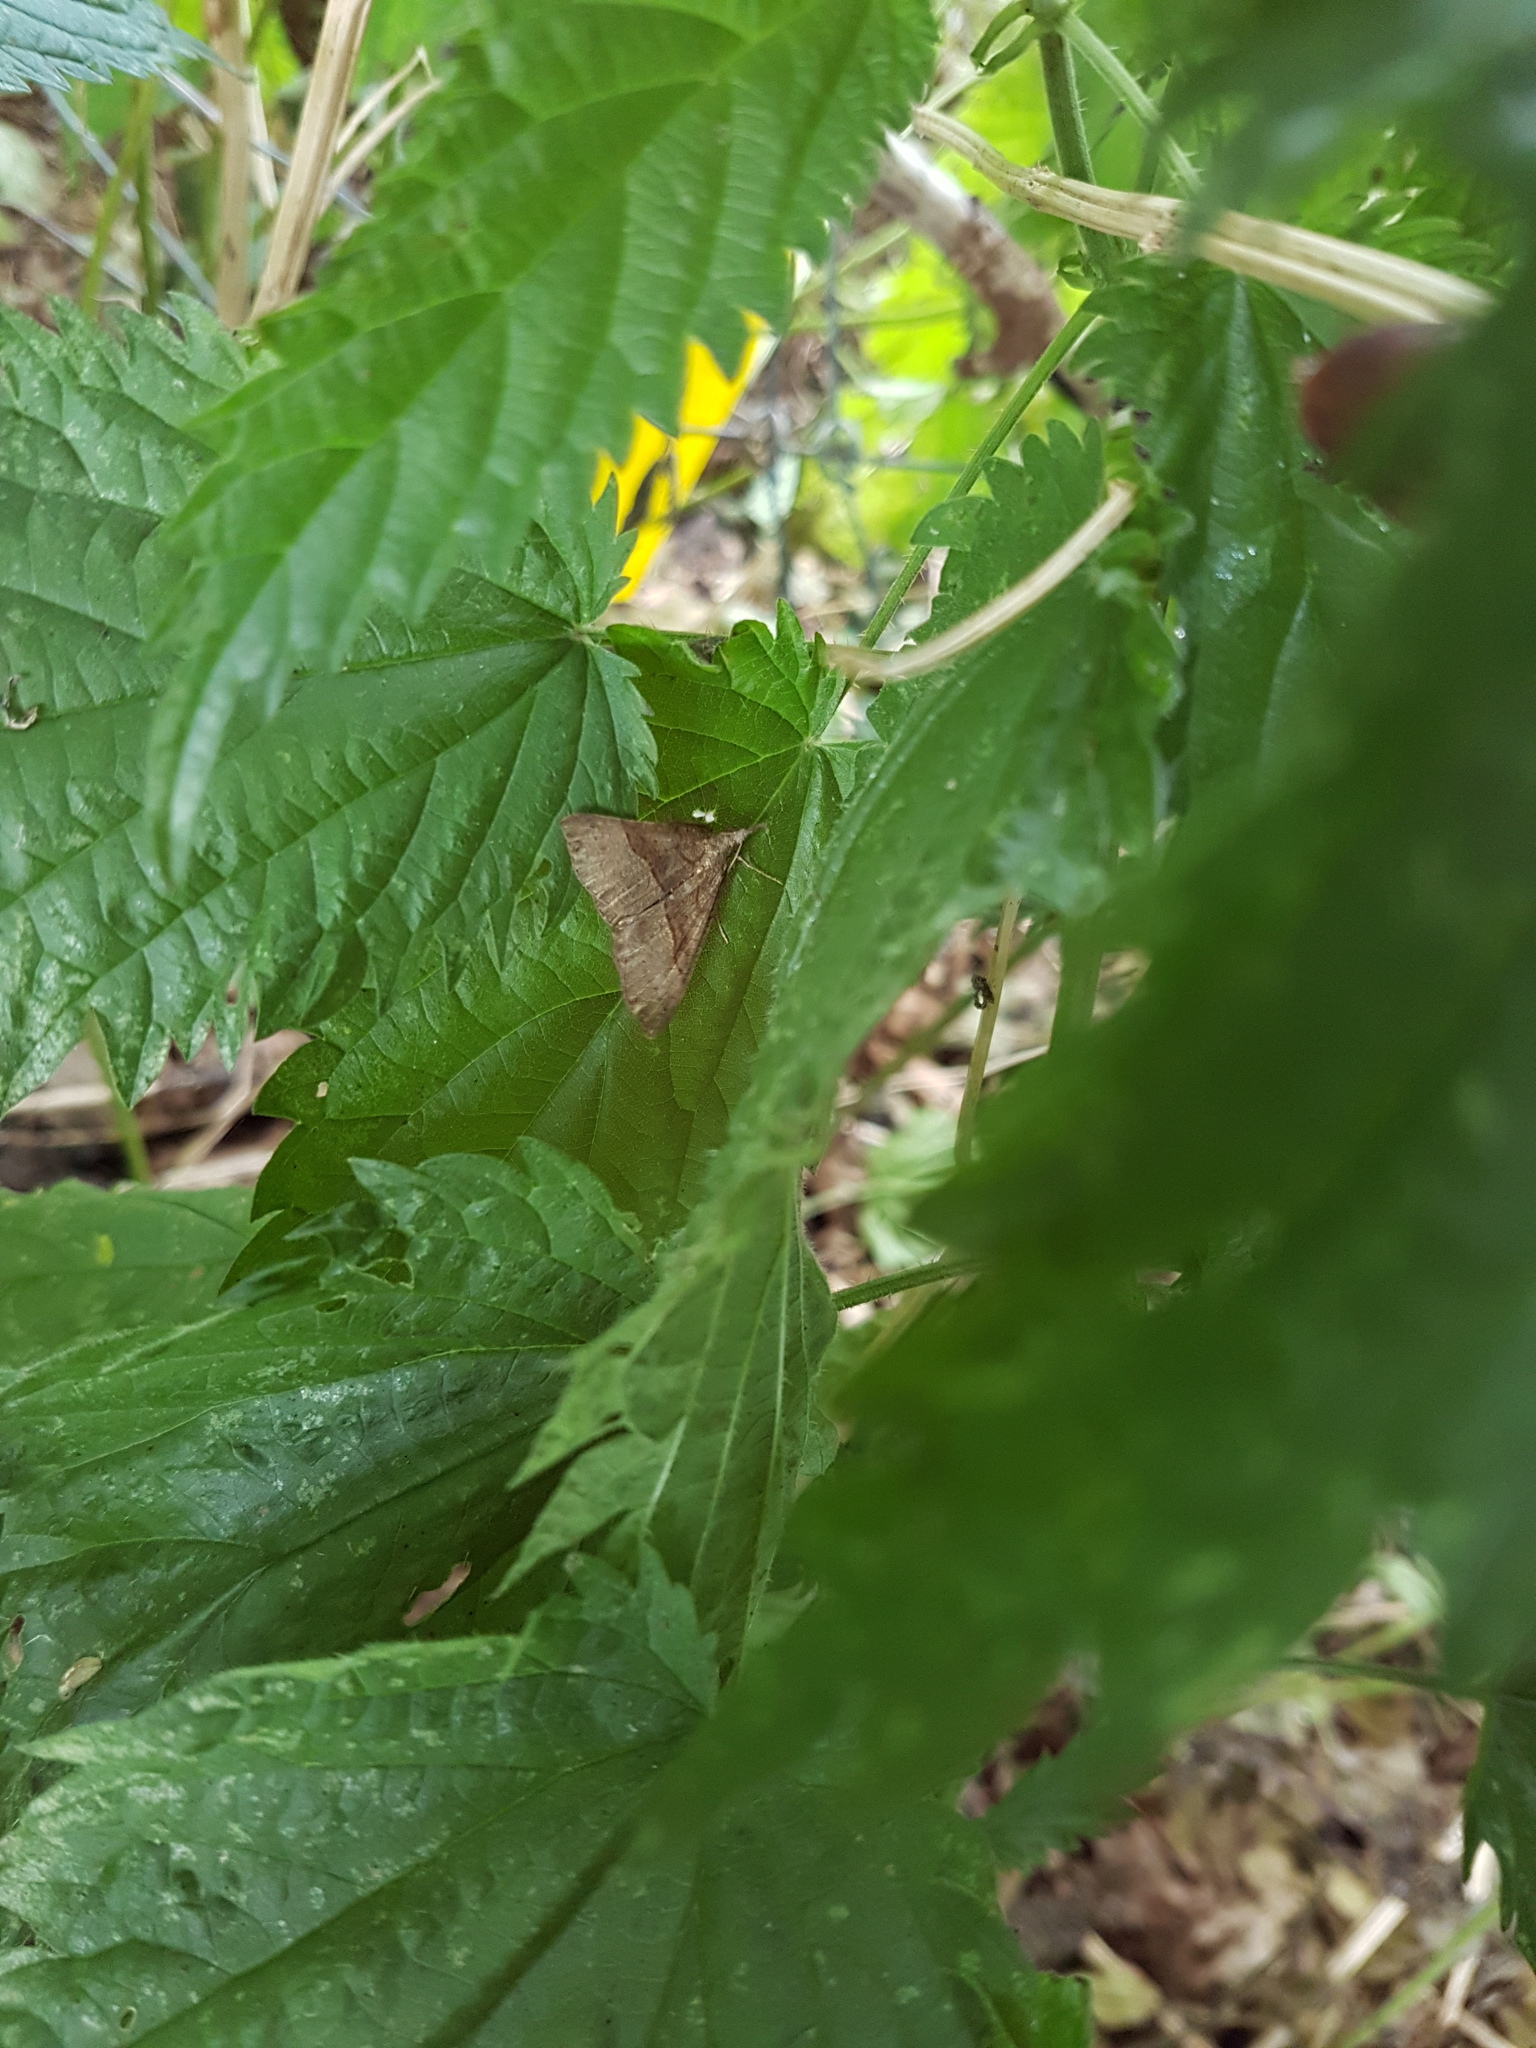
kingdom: Animalia
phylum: Arthropoda
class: Insecta
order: Lepidoptera
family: Erebidae
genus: Hypena
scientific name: Hypena proboscidalis
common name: Snout
